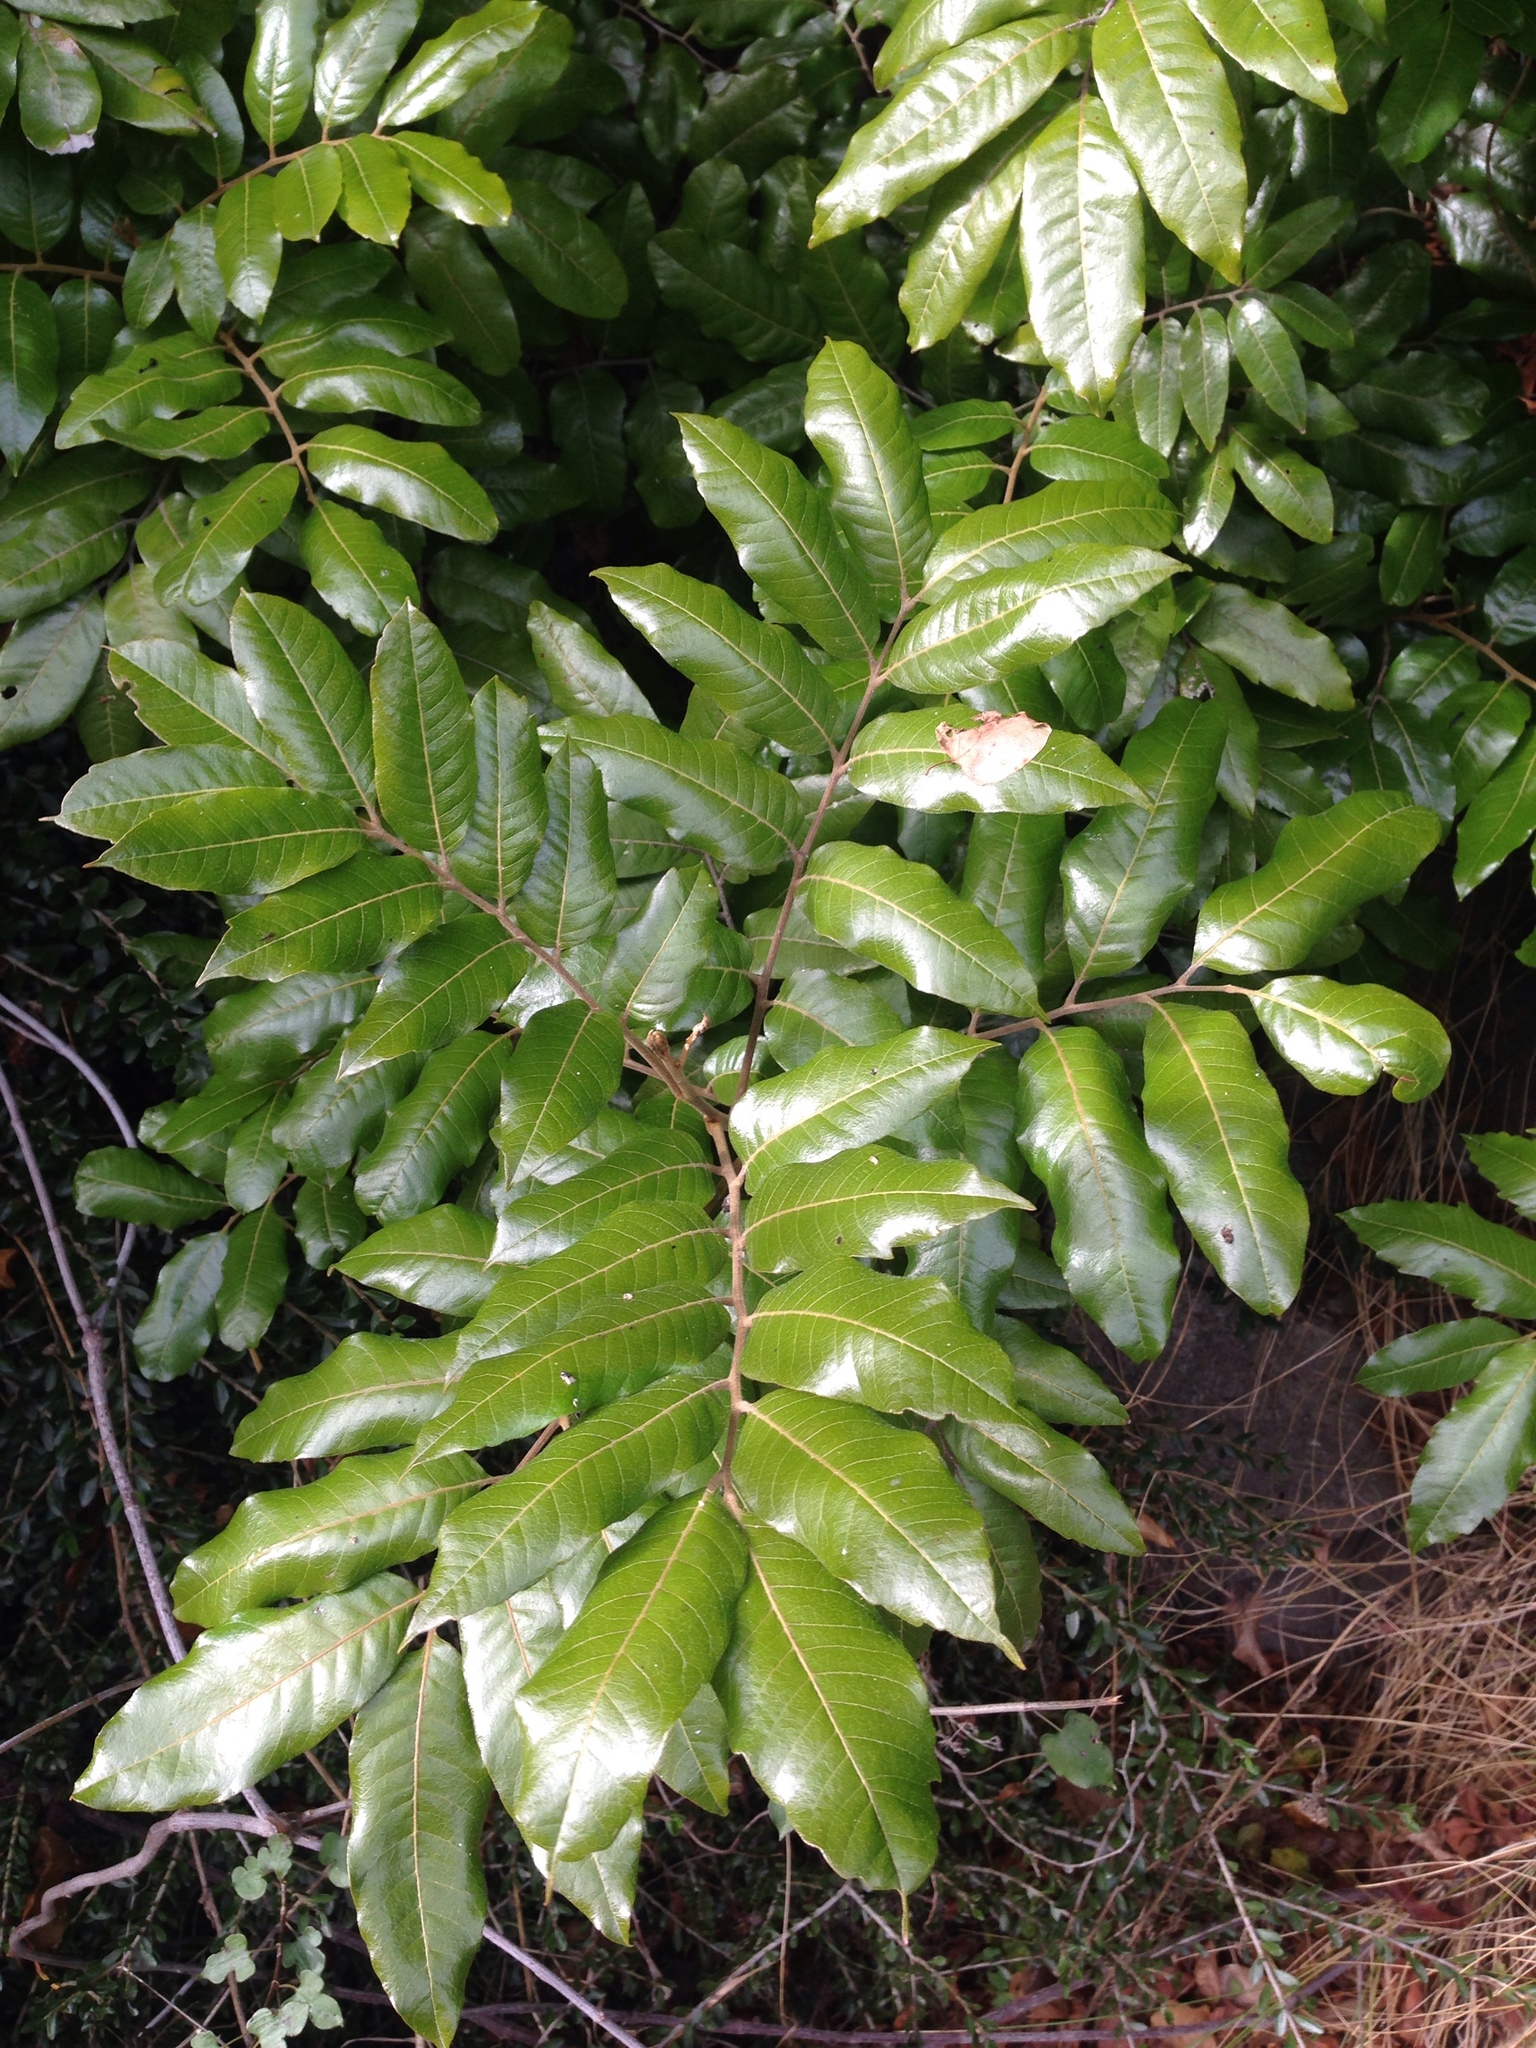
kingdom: Plantae
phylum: Tracheophyta
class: Magnoliopsida
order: Sapindales
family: Sapindaceae
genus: Alectryon
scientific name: Alectryon excelsus
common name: Three kings titoki
